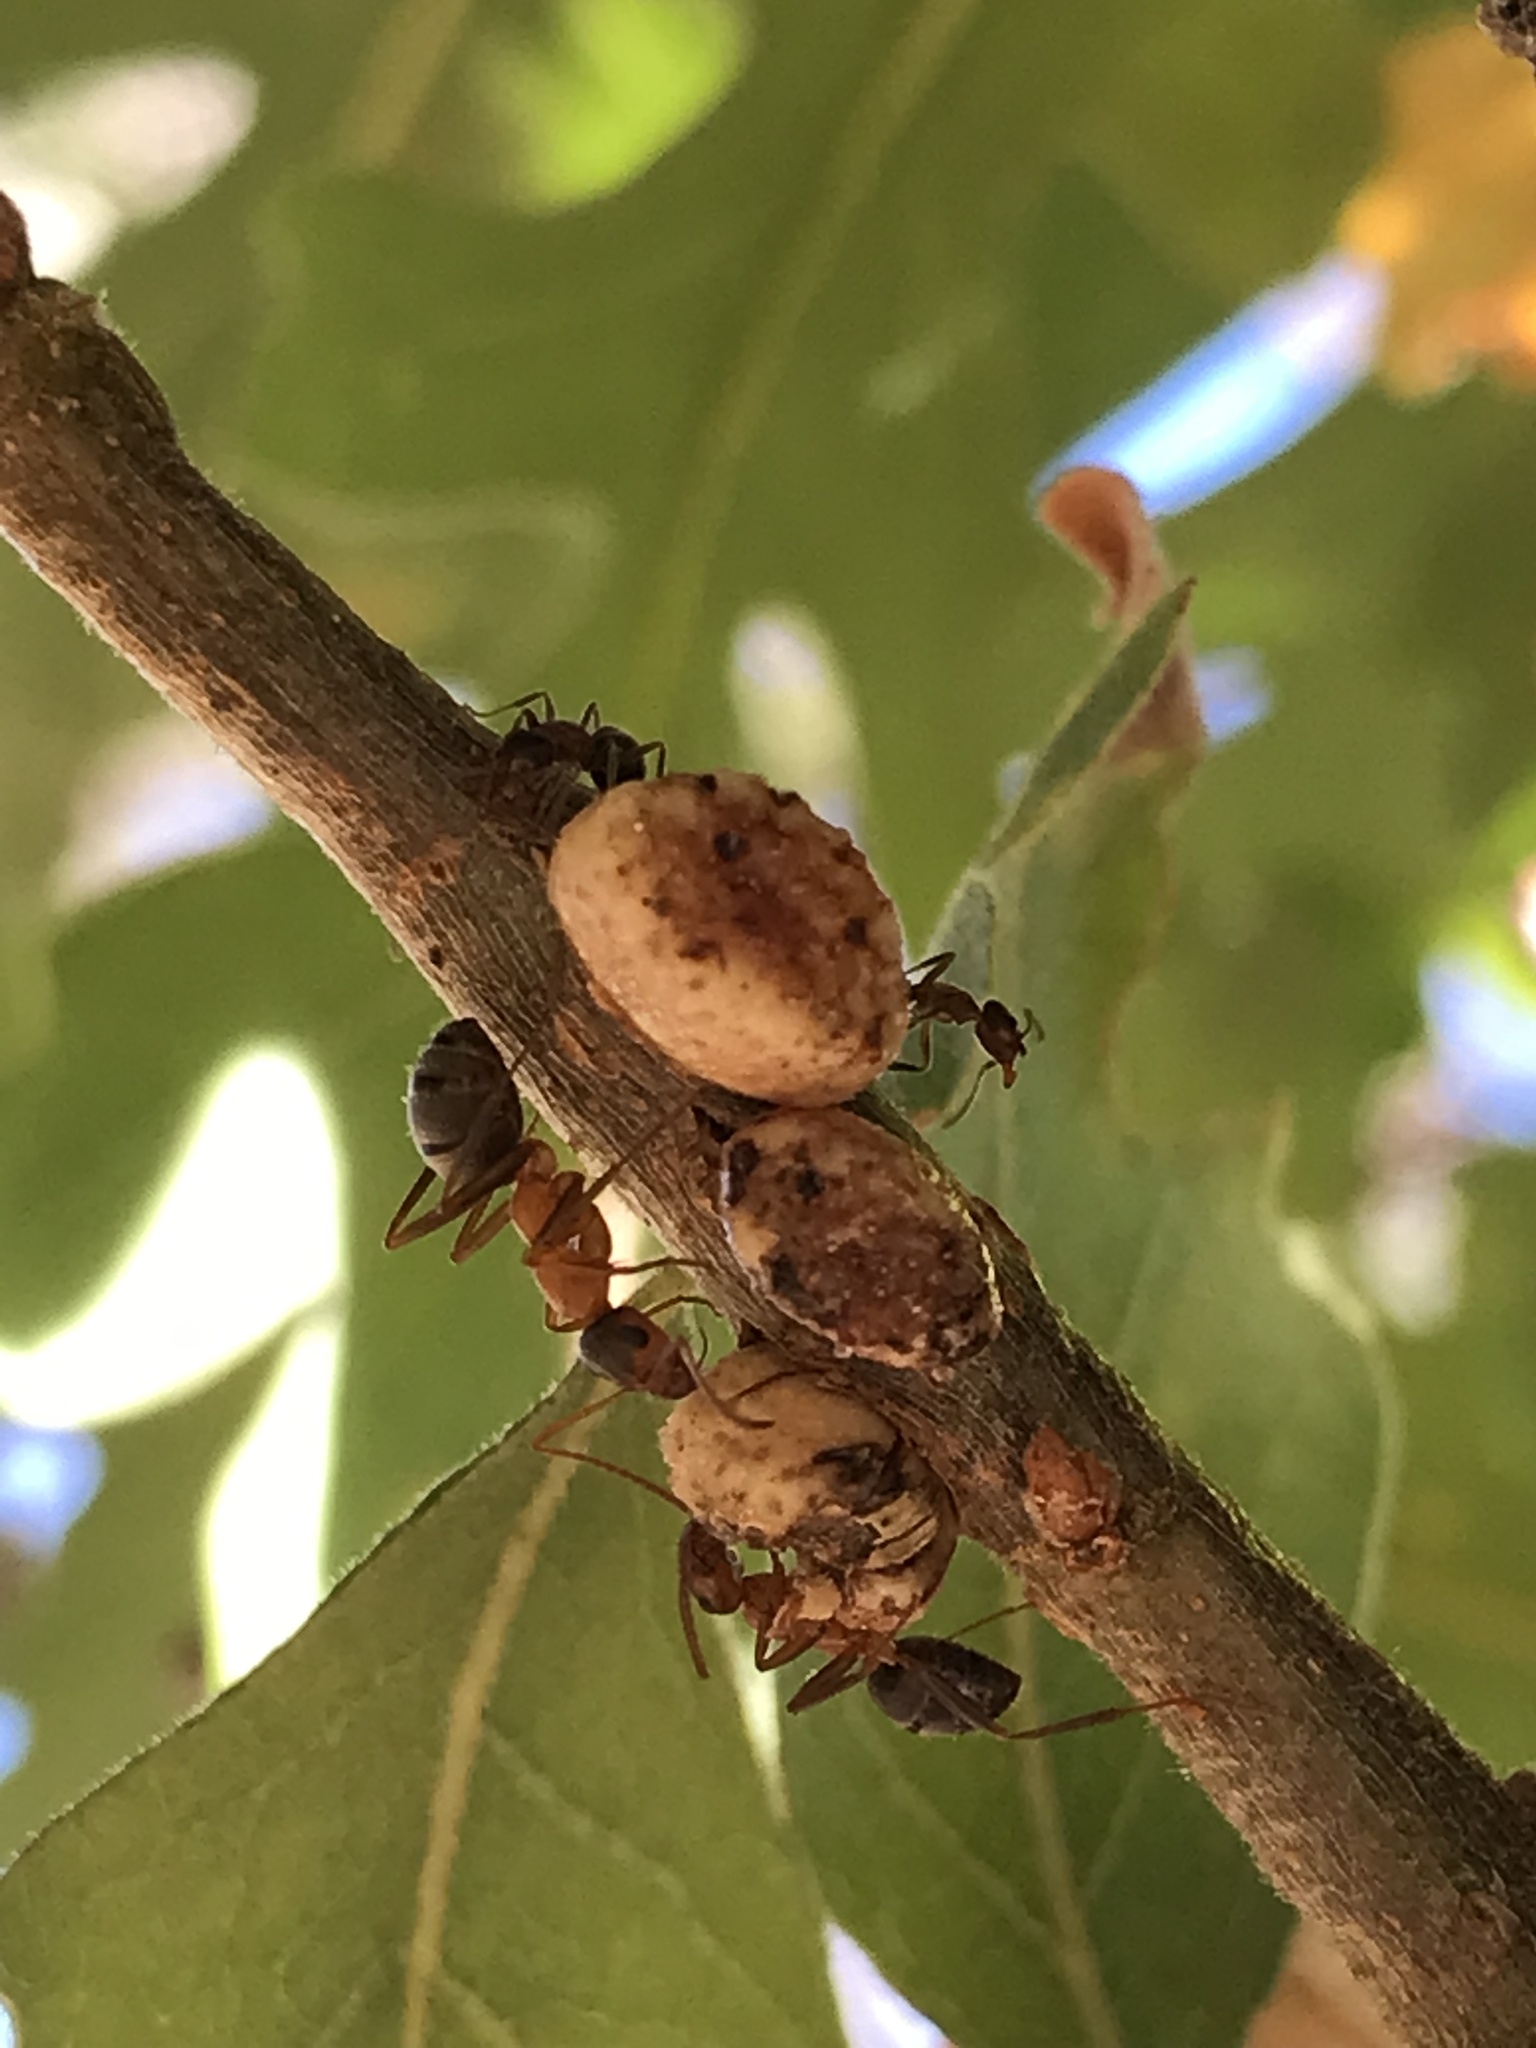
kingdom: Animalia
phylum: Arthropoda
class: Insecta
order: Hymenoptera
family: Cynipidae
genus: Disholcaspis
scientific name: Disholcaspis
